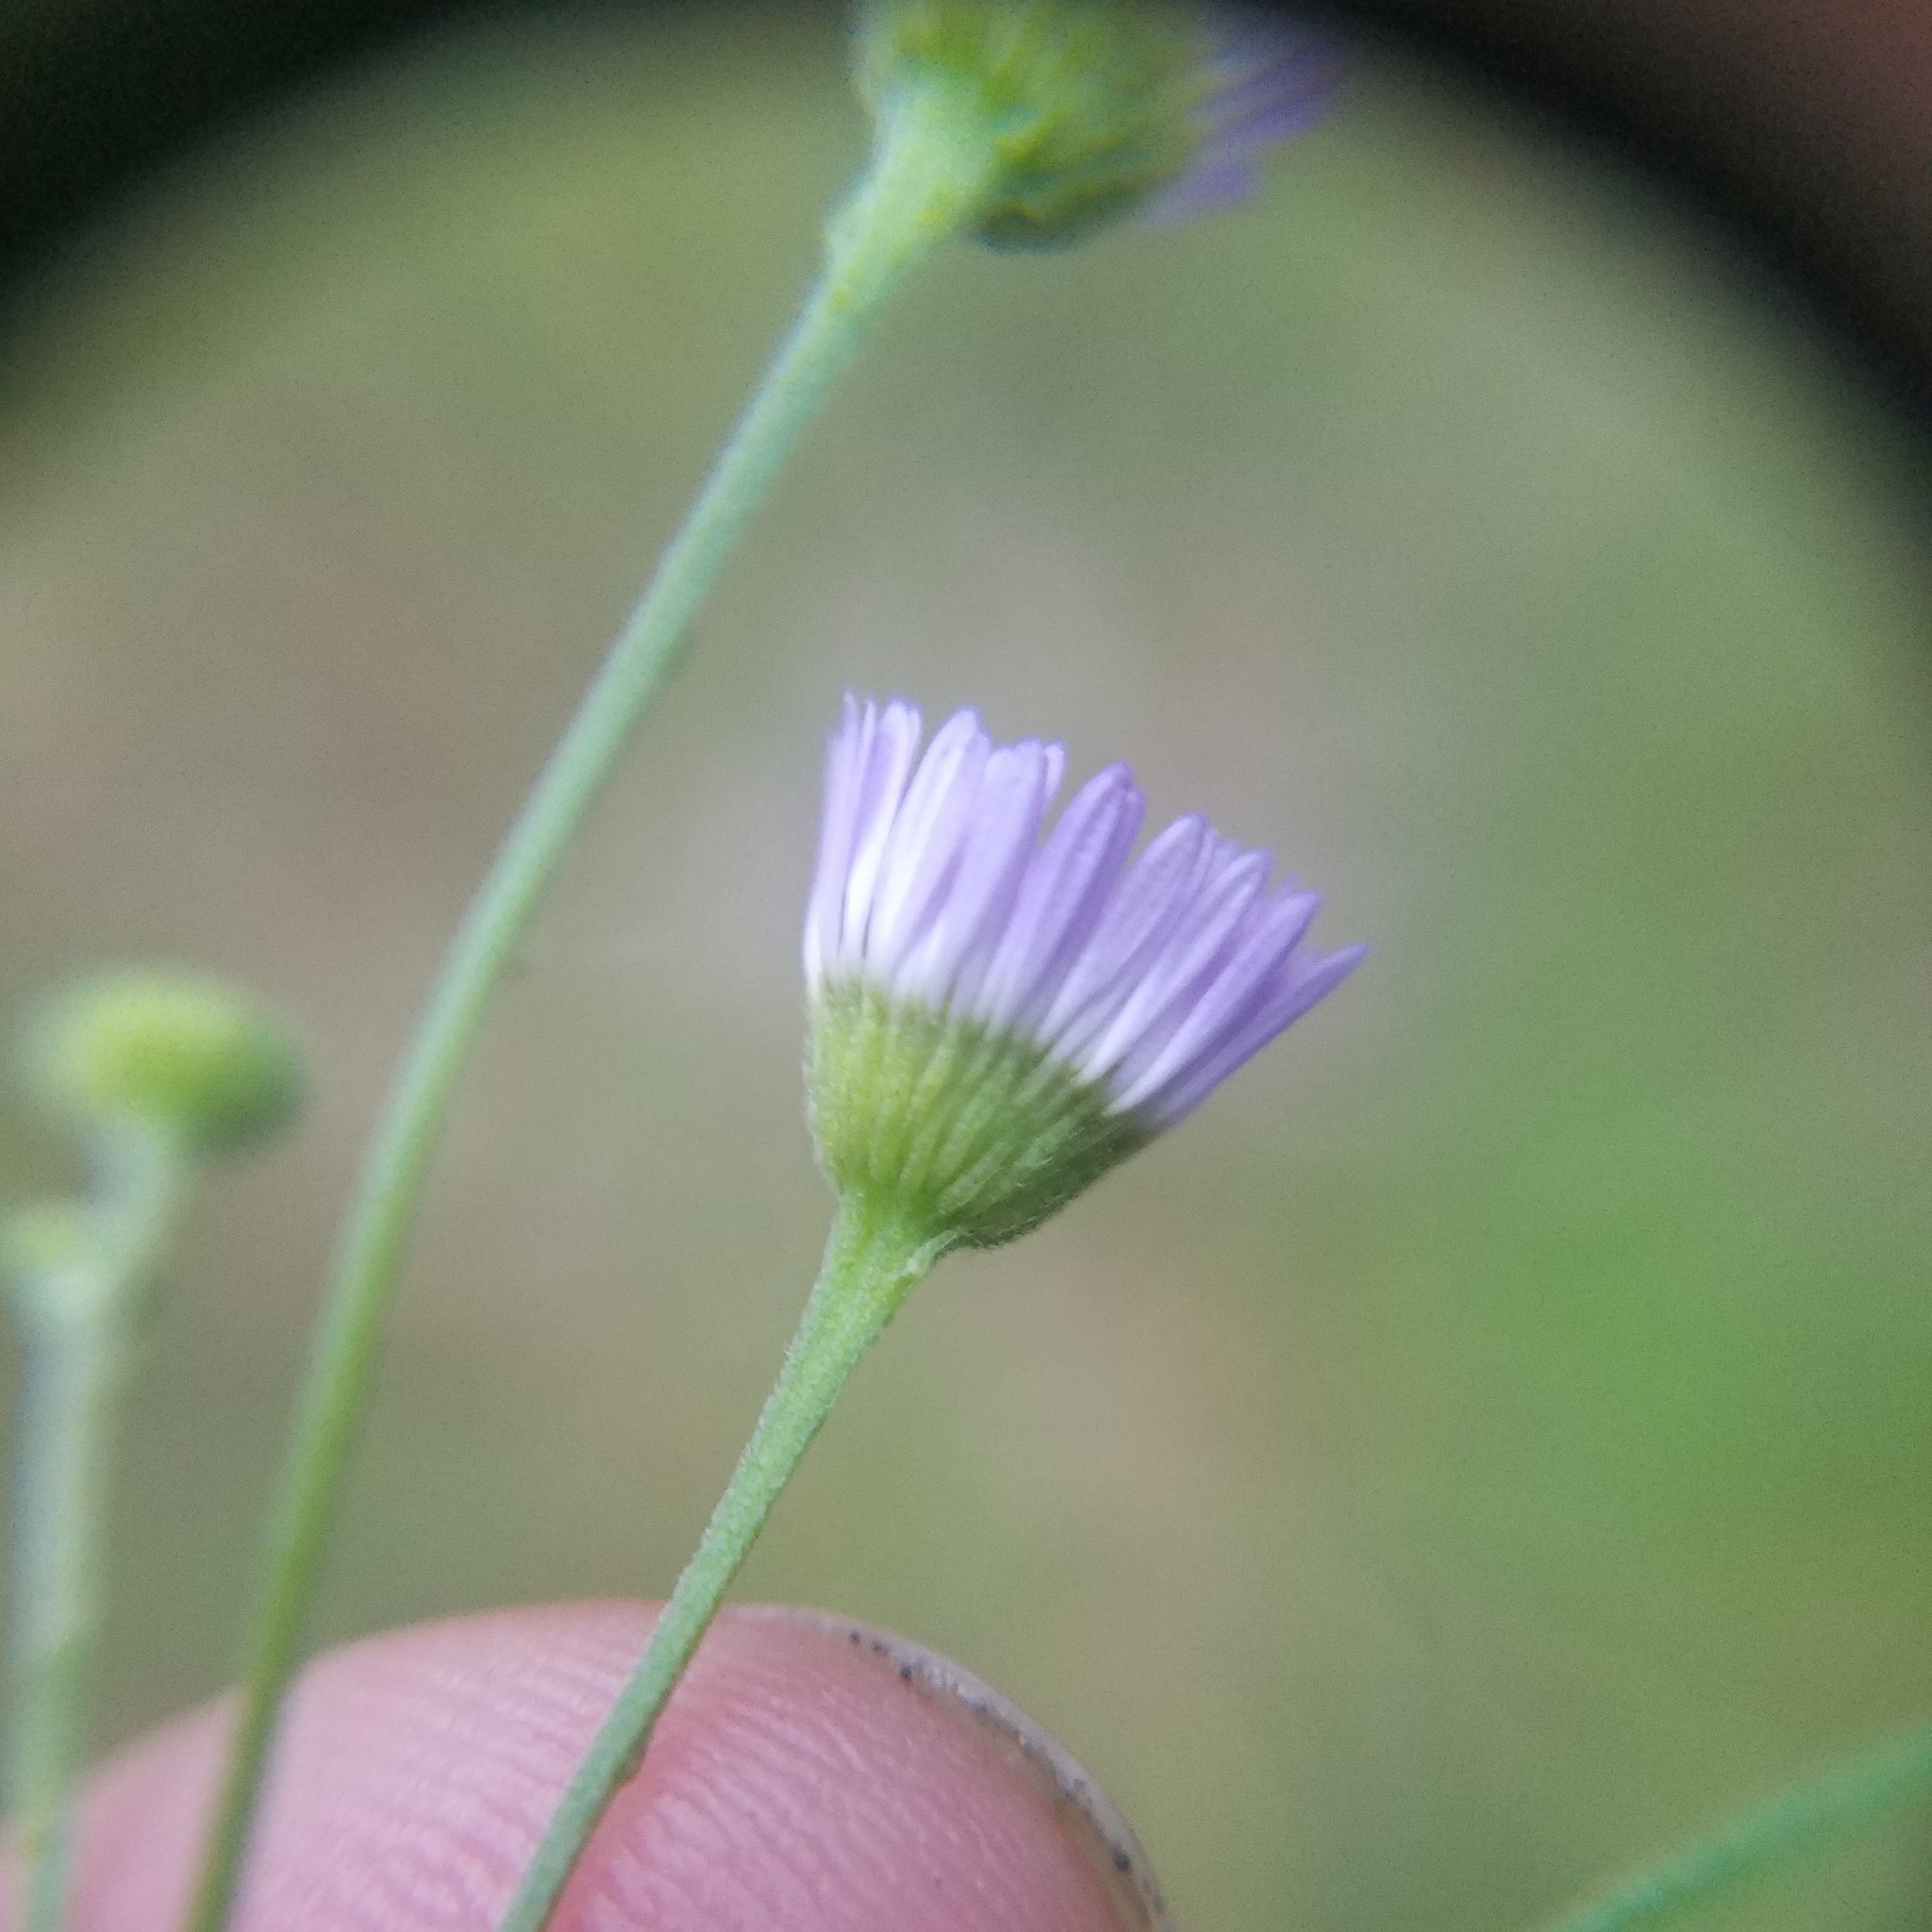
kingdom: Plantae
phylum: Tracheophyta
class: Magnoliopsida
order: Asterales
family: Asteraceae
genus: Erigeron
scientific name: Erigeron strigosus
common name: Common eastern fleabane
